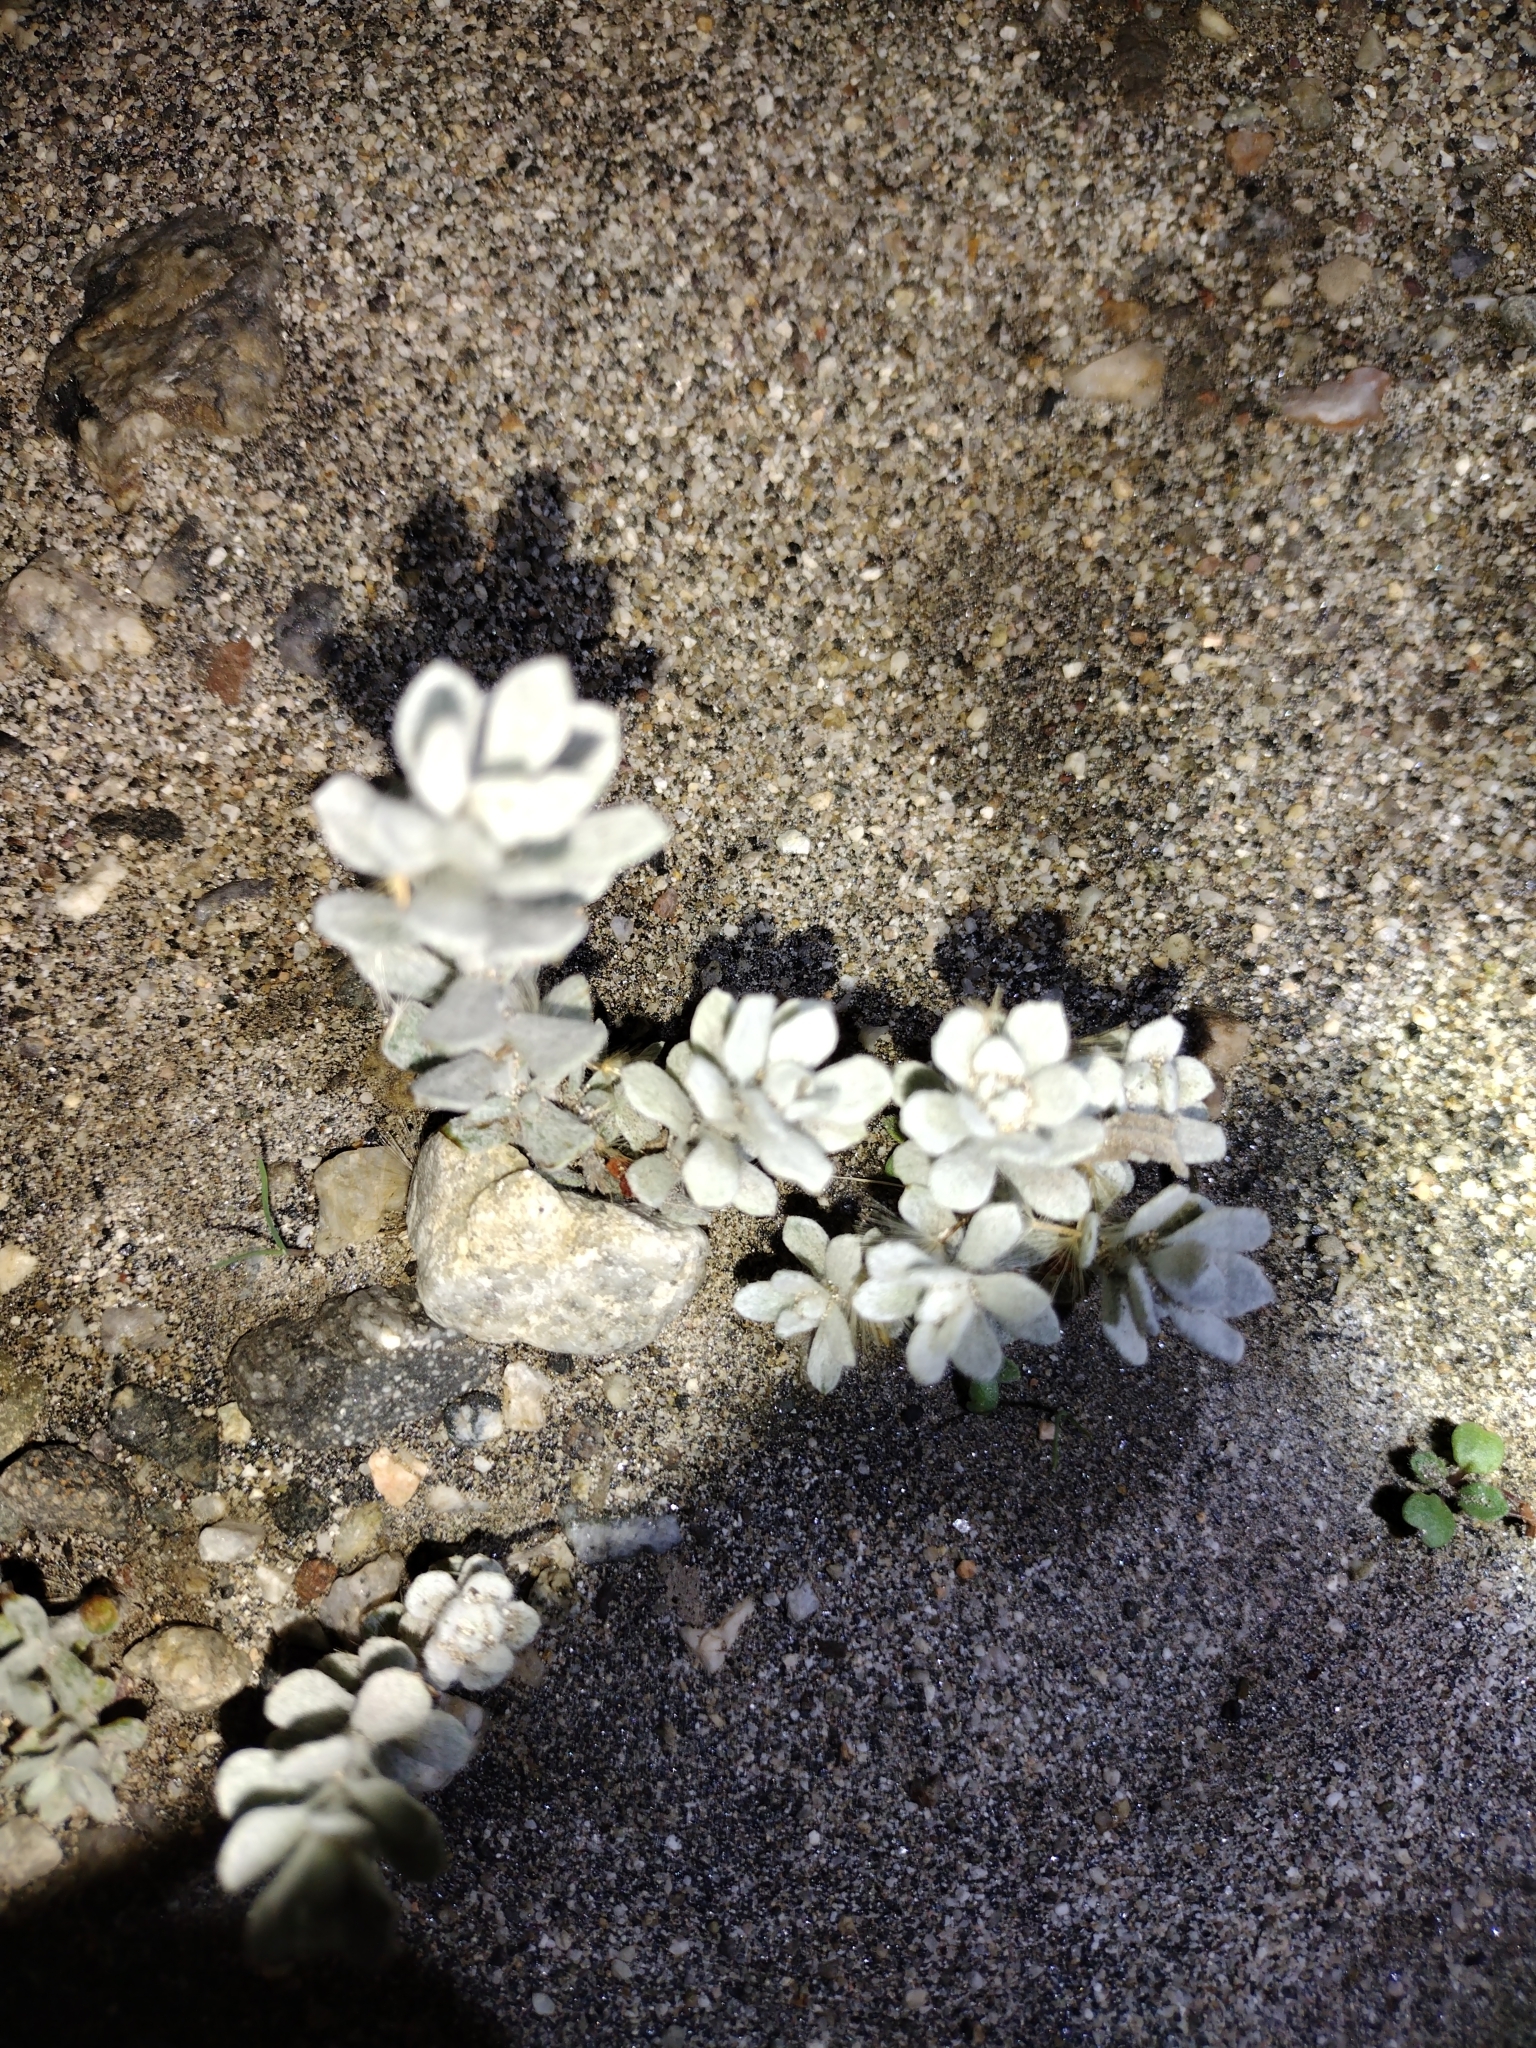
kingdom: Plantae
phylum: Tracheophyta
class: Magnoliopsida
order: Asterales
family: Asteraceae
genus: Lepidospartum
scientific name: Lepidospartum squamatum
